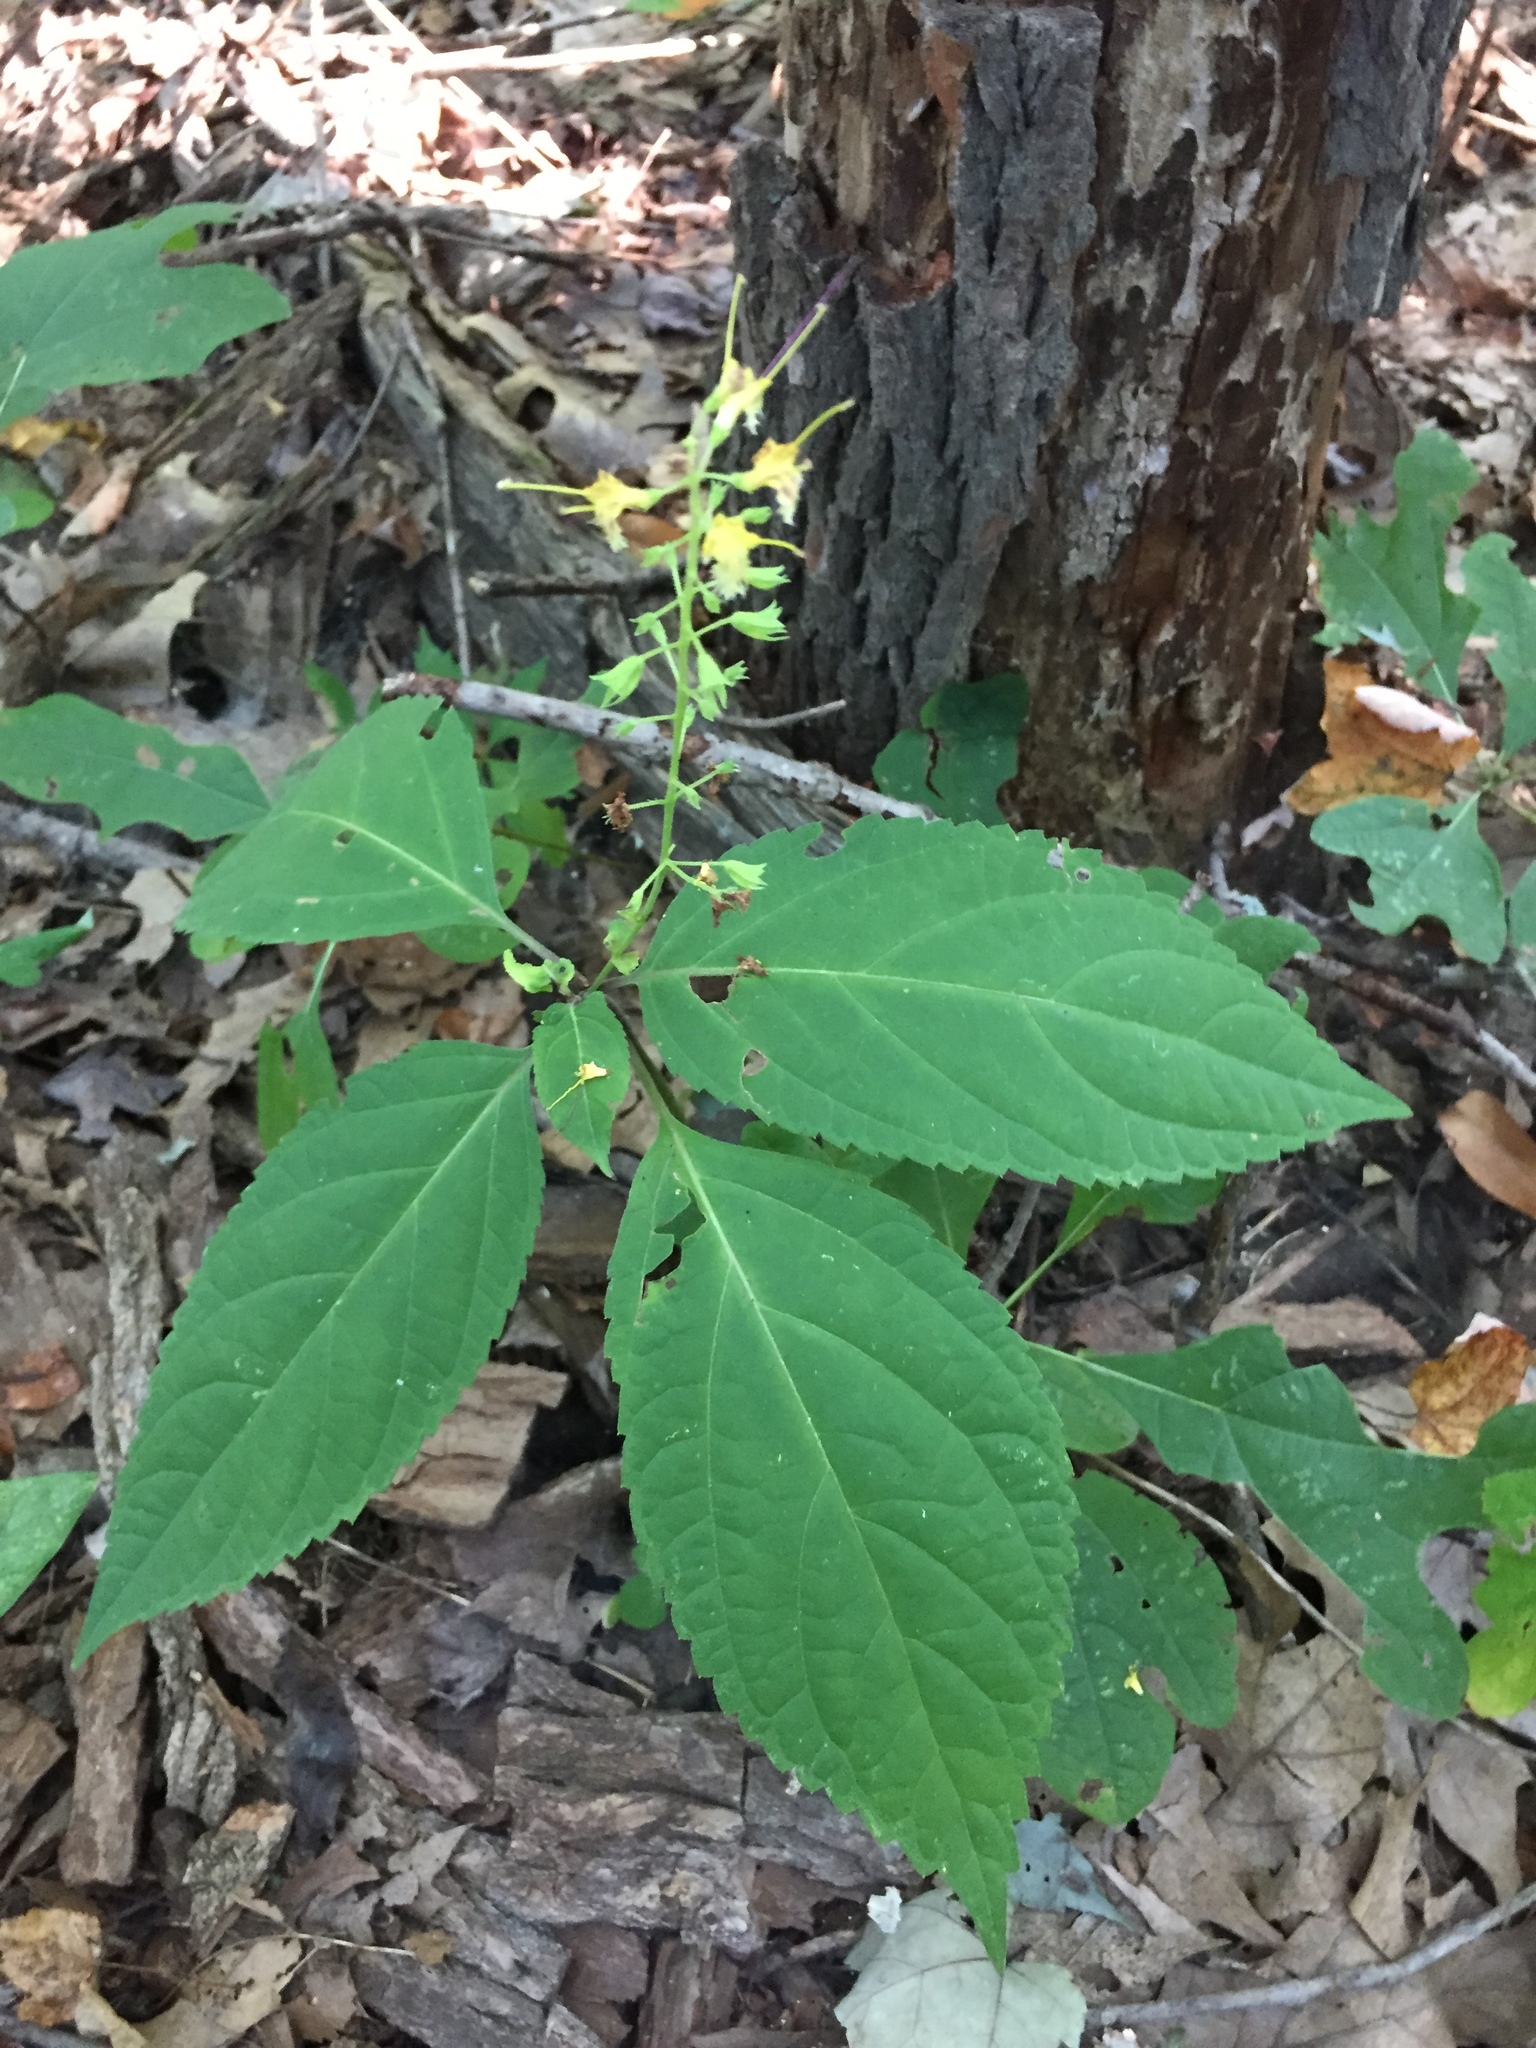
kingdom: Plantae
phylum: Tracheophyta
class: Magnoliopsida
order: Lamiales
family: Lamiaceae
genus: Collinsonia
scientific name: Collinsonia canadensis
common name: Northern horsebalm
